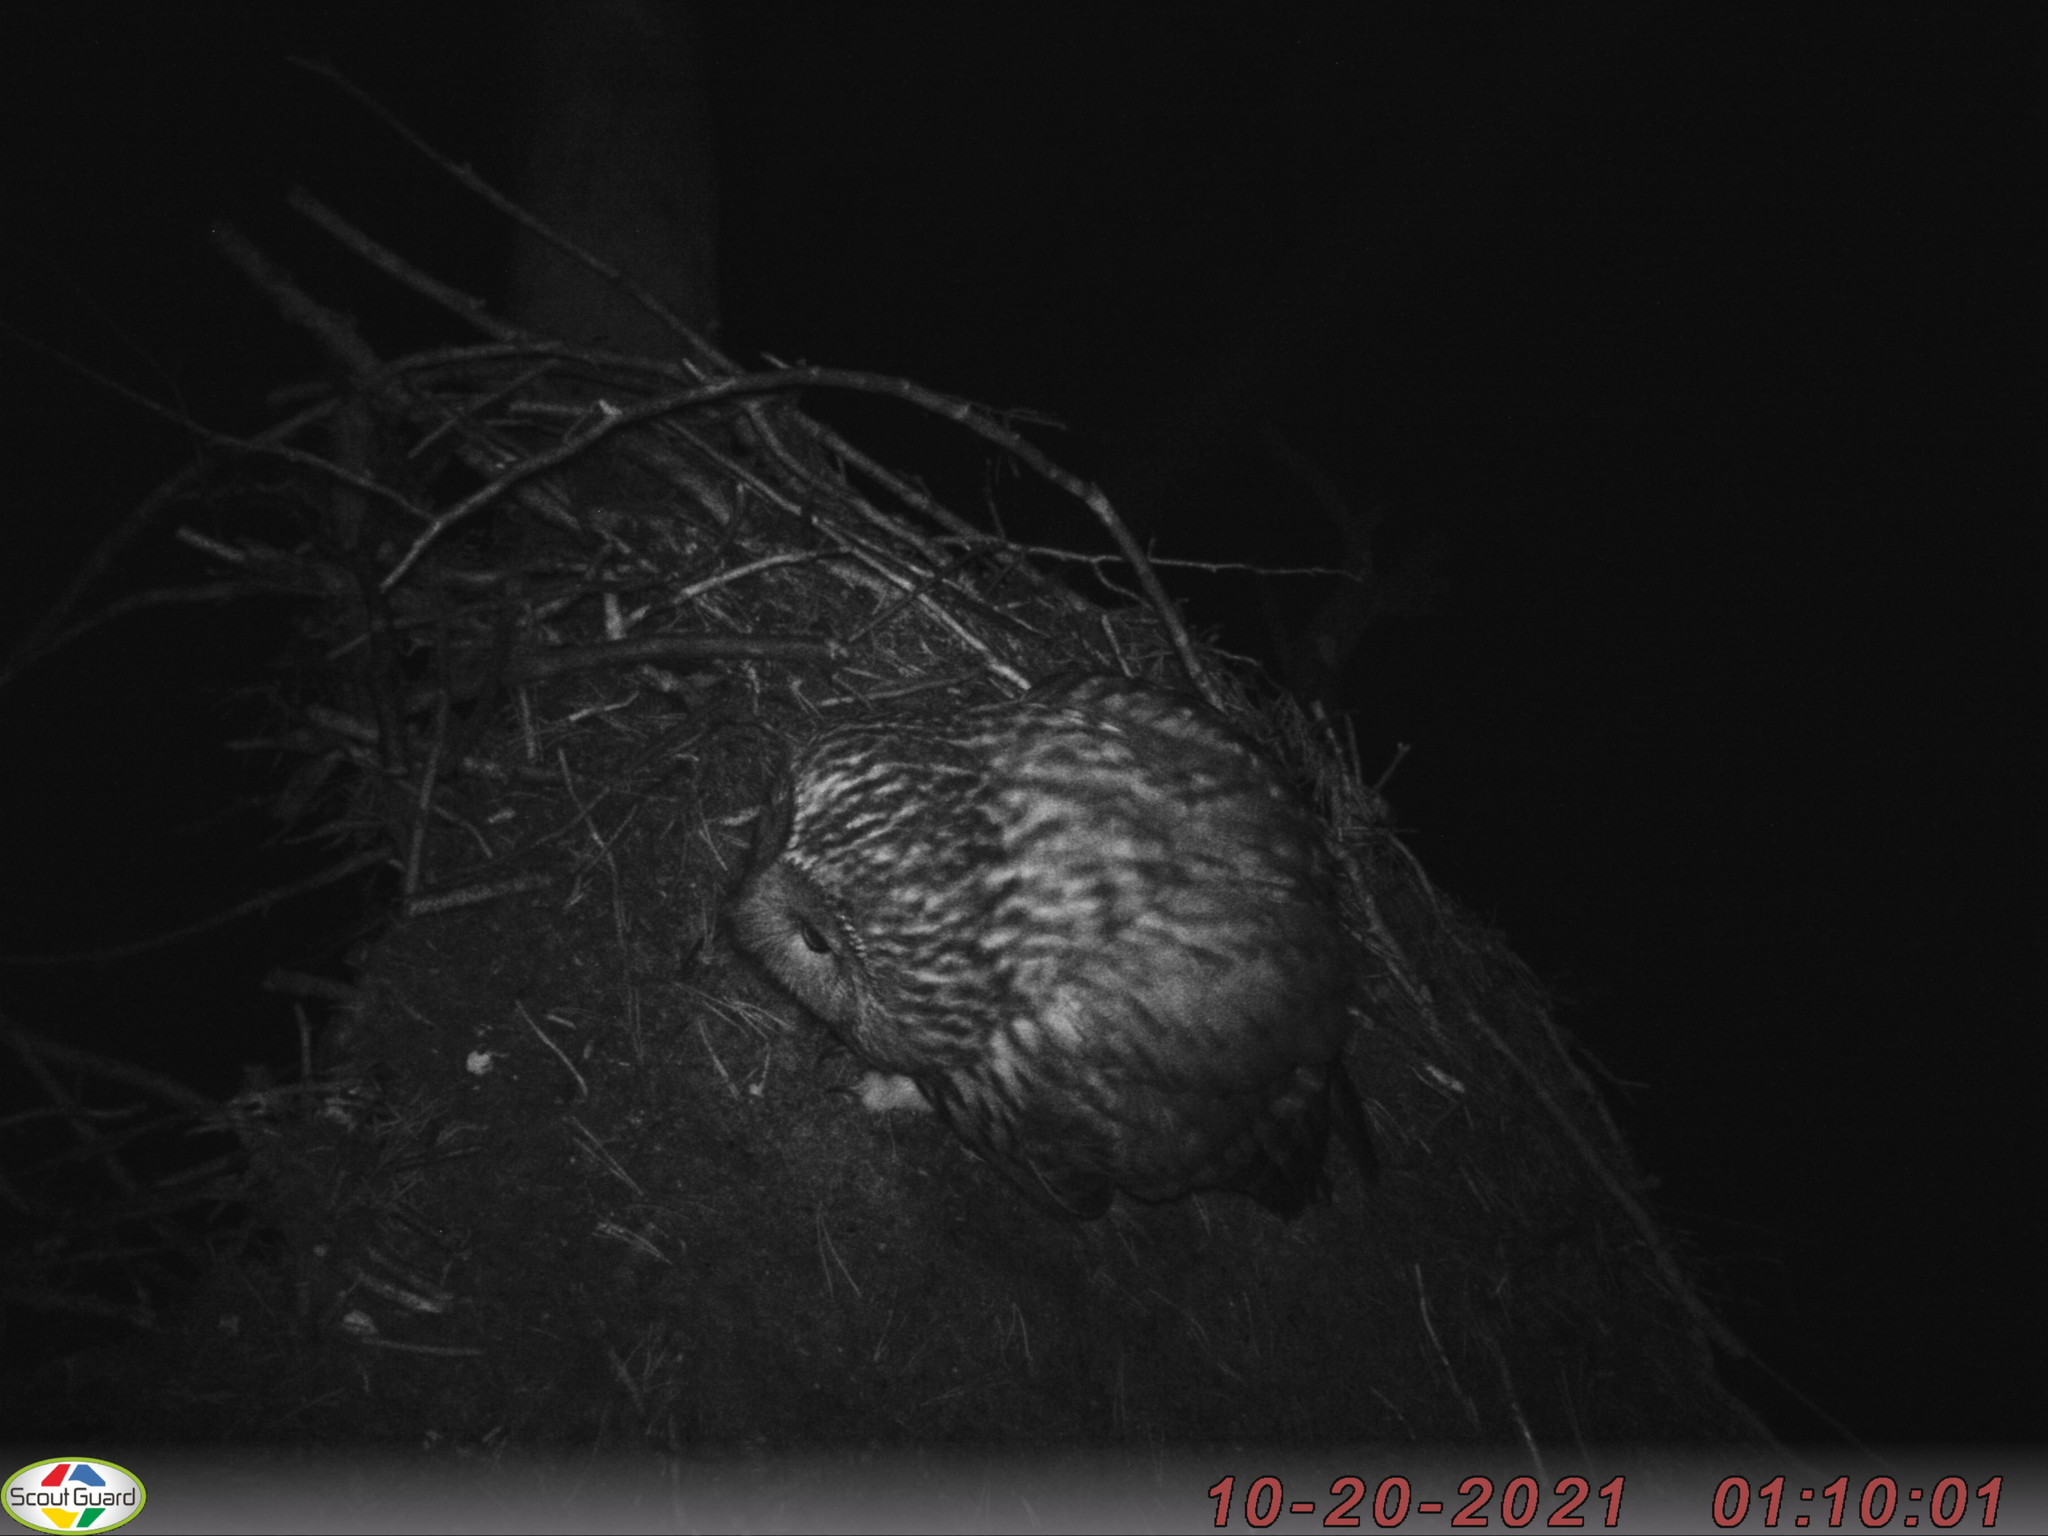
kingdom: Animalia
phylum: Chordata
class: Aves
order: Strigiformes
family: Strigidae
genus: Strix
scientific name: Strix uralensis
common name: Ural owl
